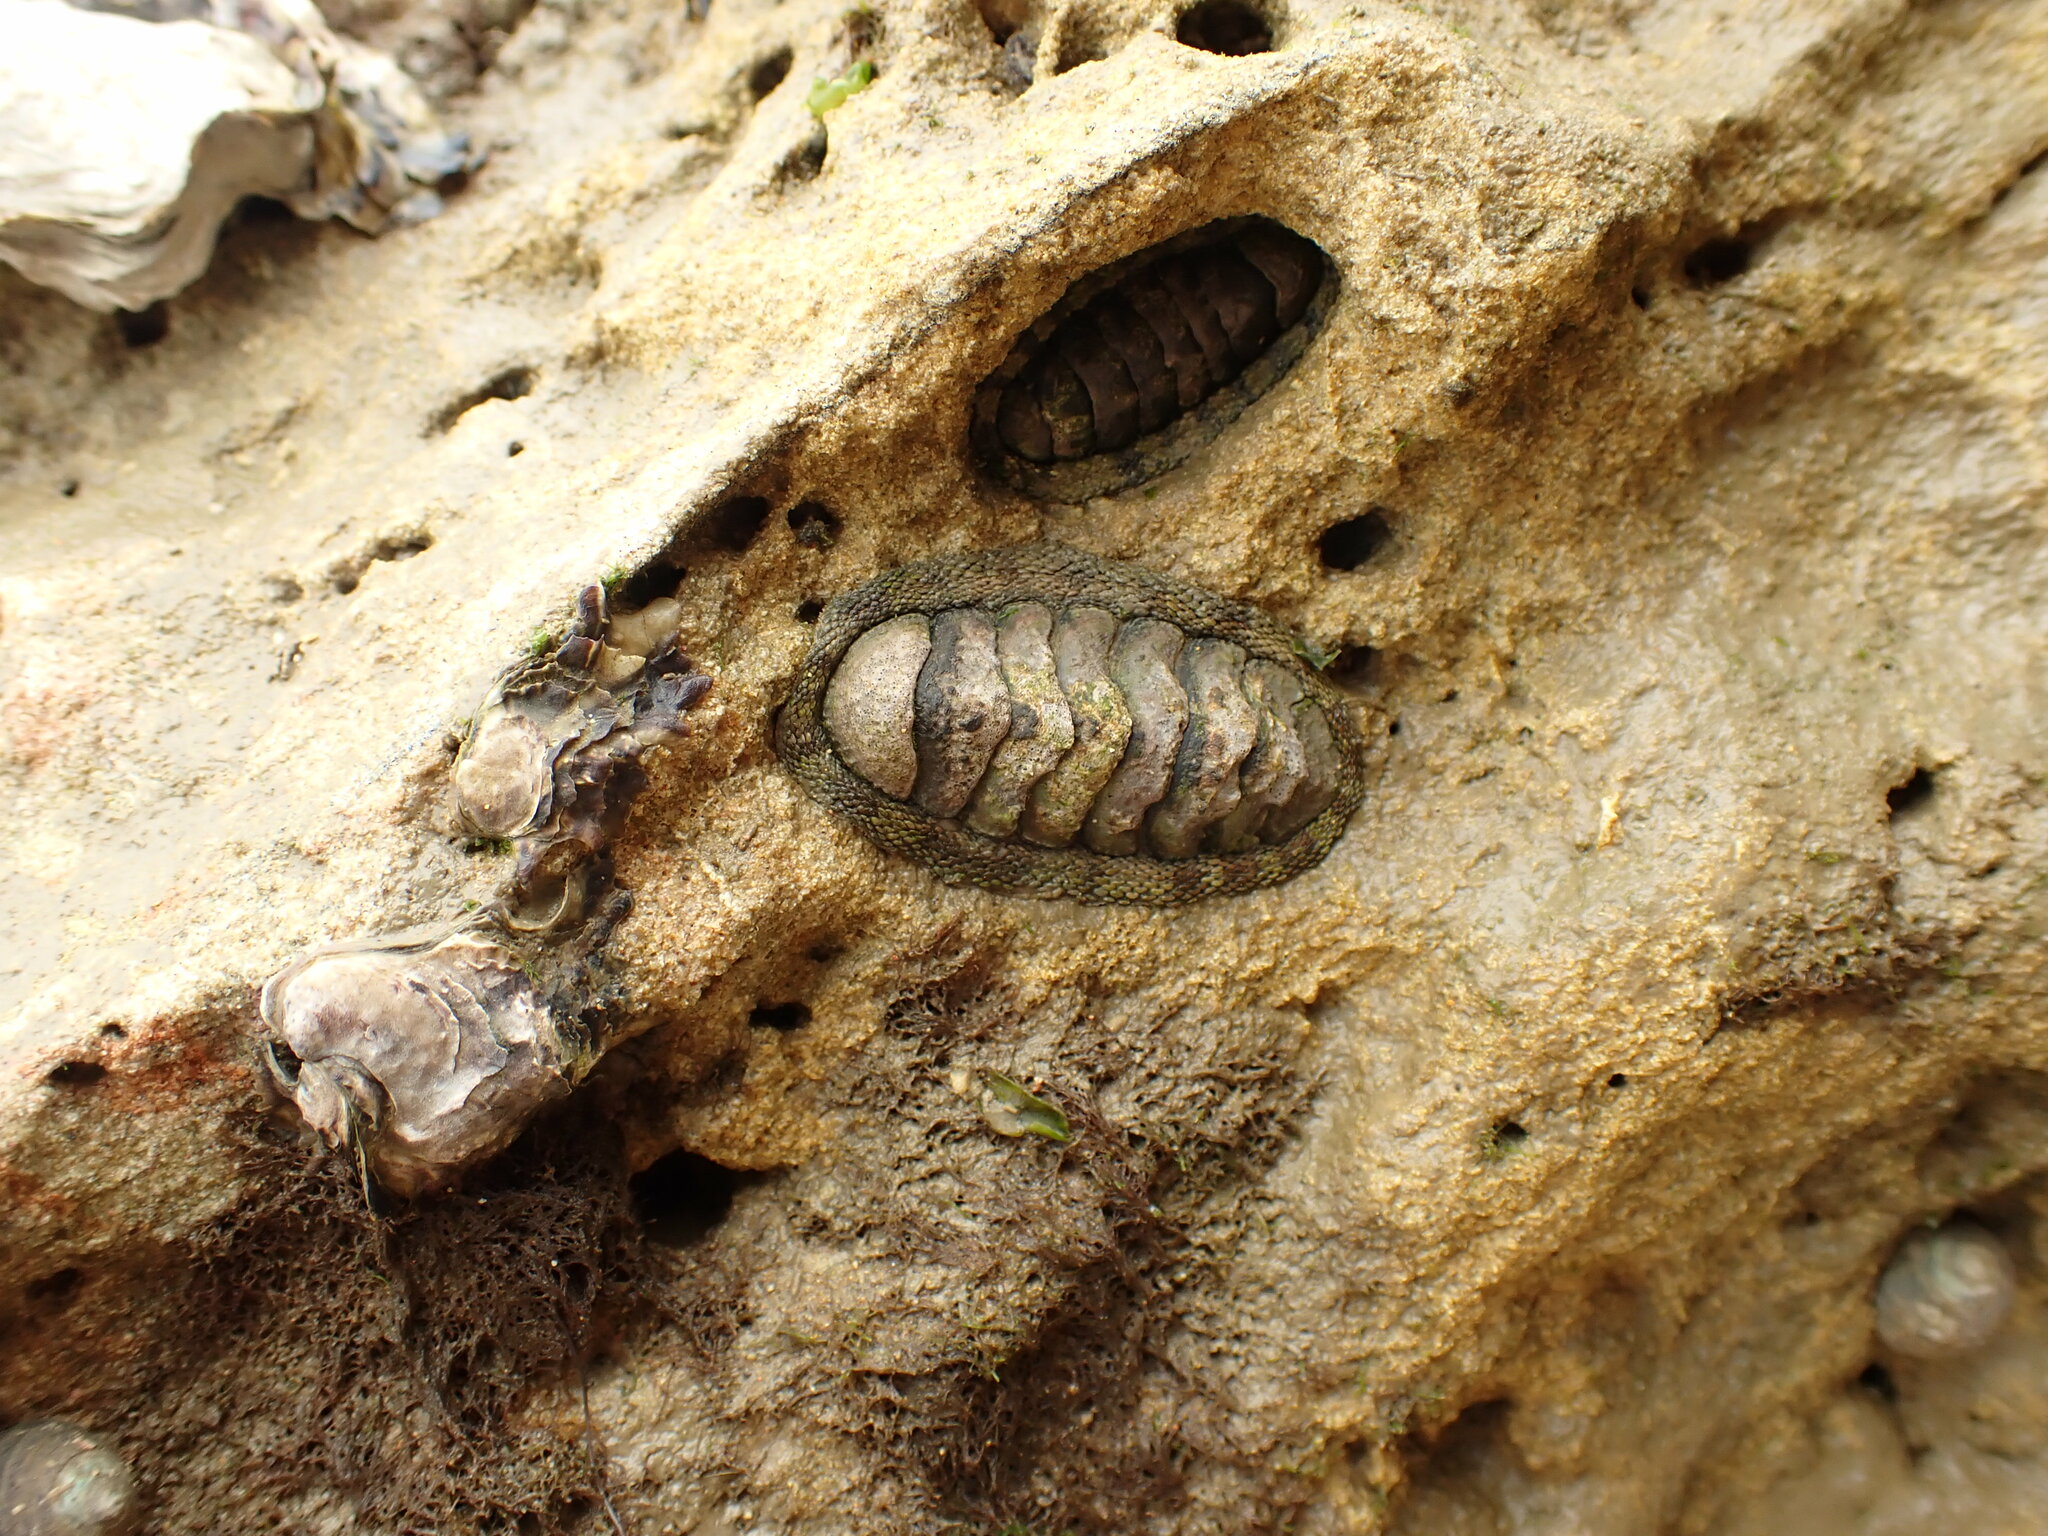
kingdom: Animalia
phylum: Mollusca
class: Polyplacophora
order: Chitonida
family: Chitonidae
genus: Sypharochiton
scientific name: Sypharochiton pelliserpentis
